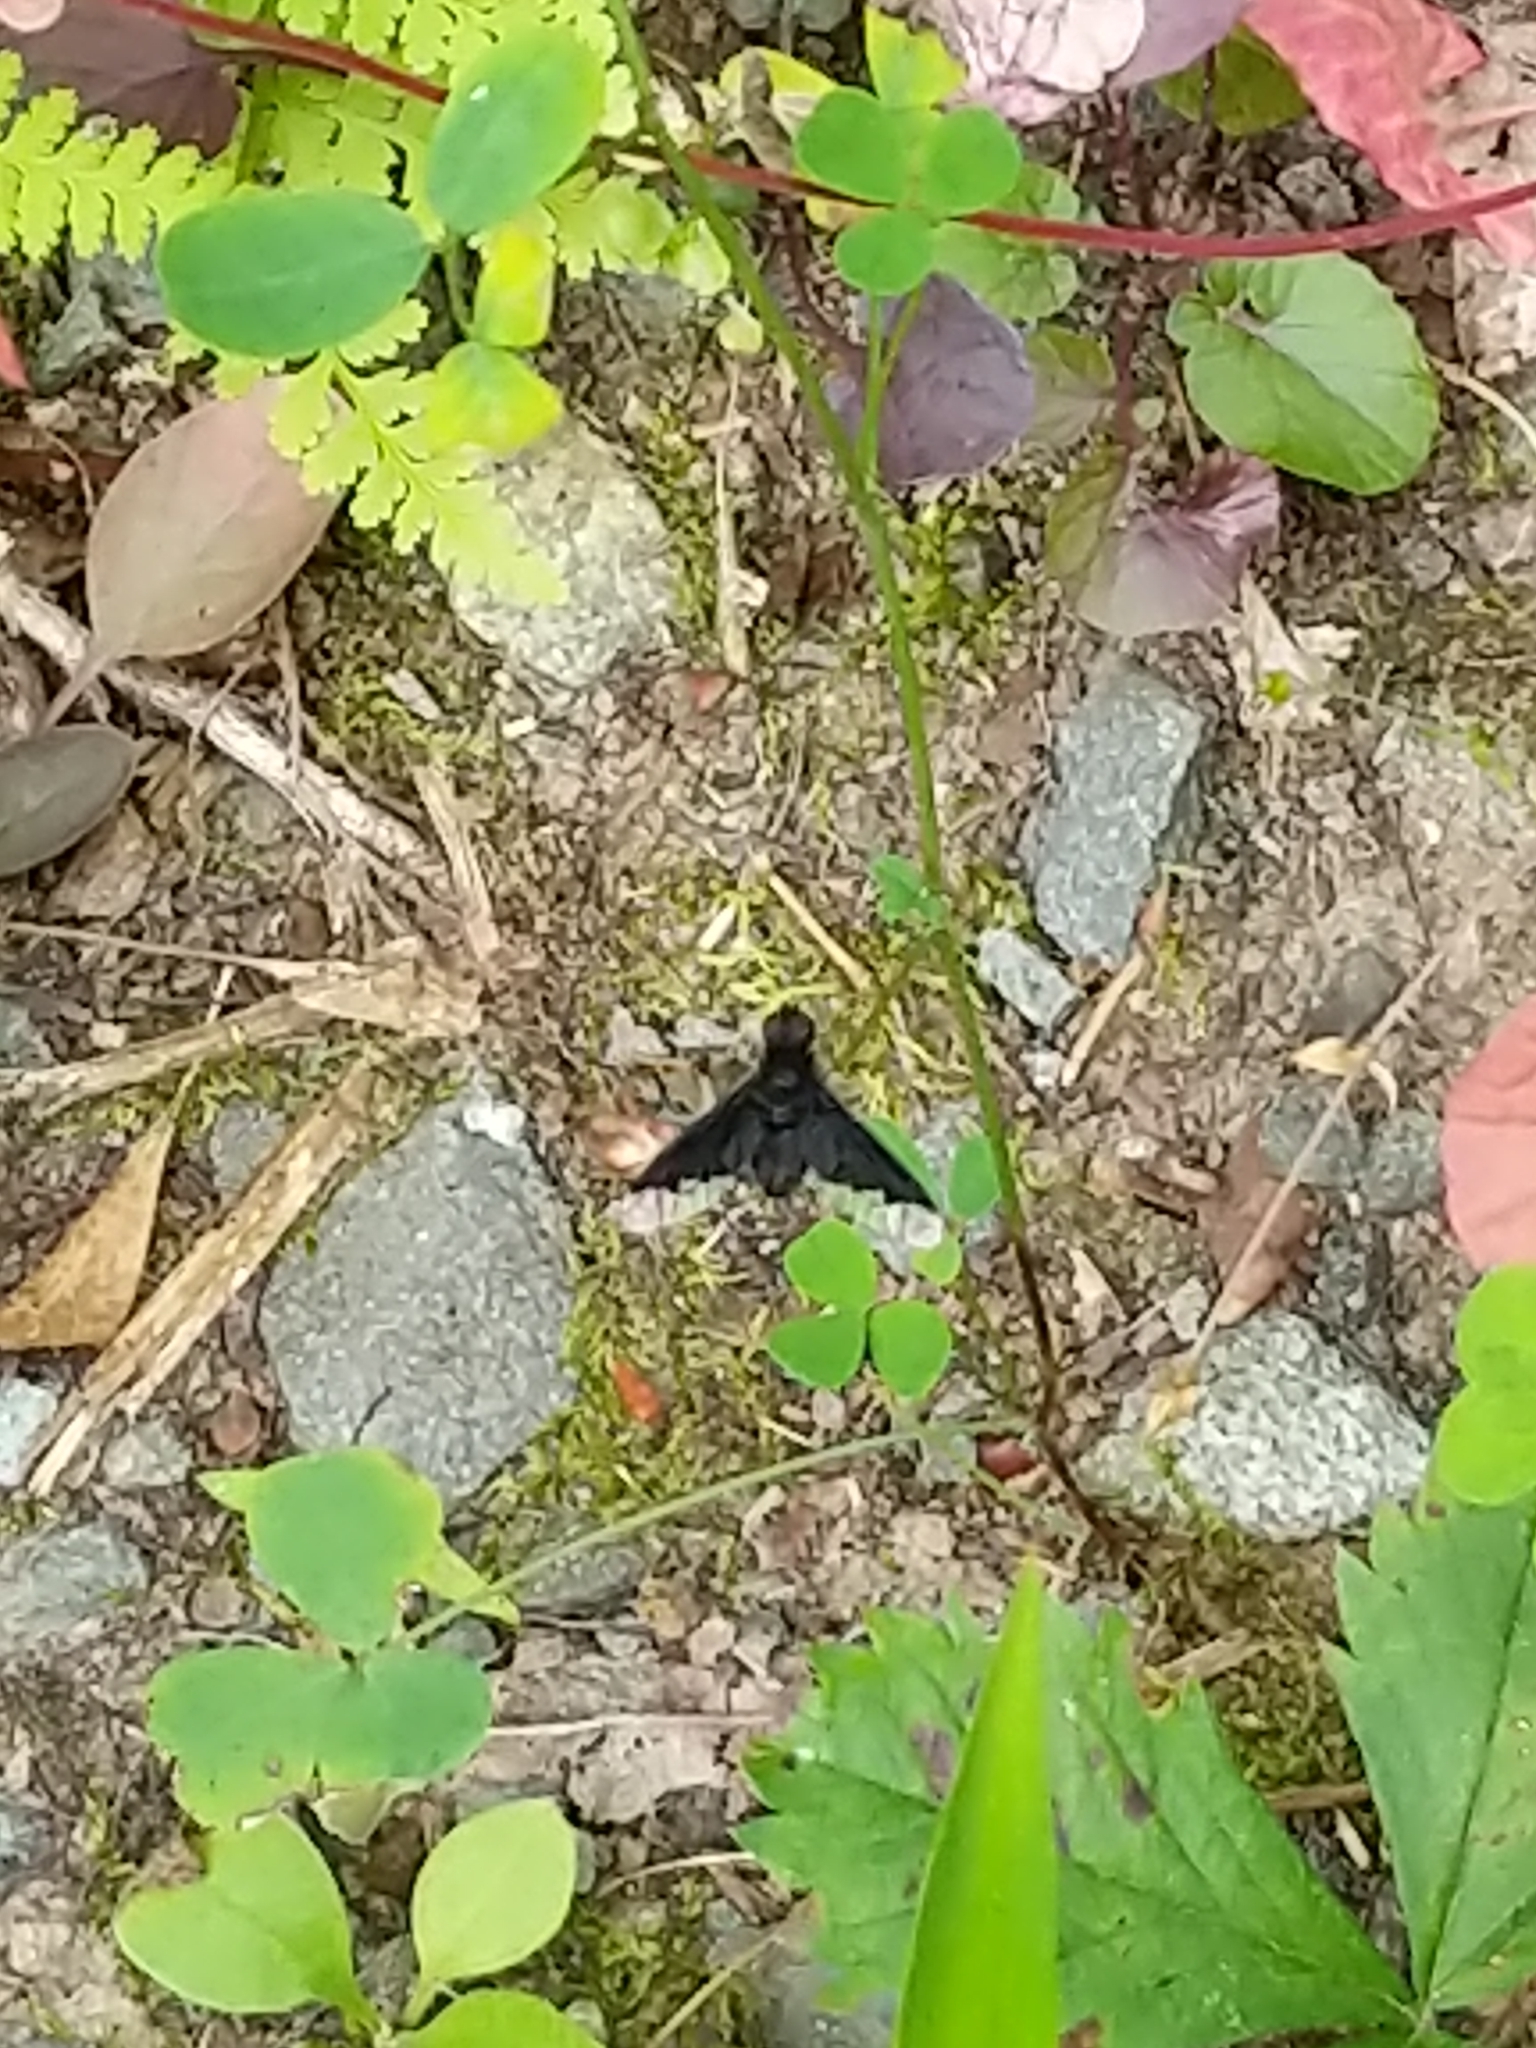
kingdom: Animalia
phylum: Arthropoda
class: Insecta
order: Diptera
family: Bombyliidae
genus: Anthrax
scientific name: Anthrax analis
